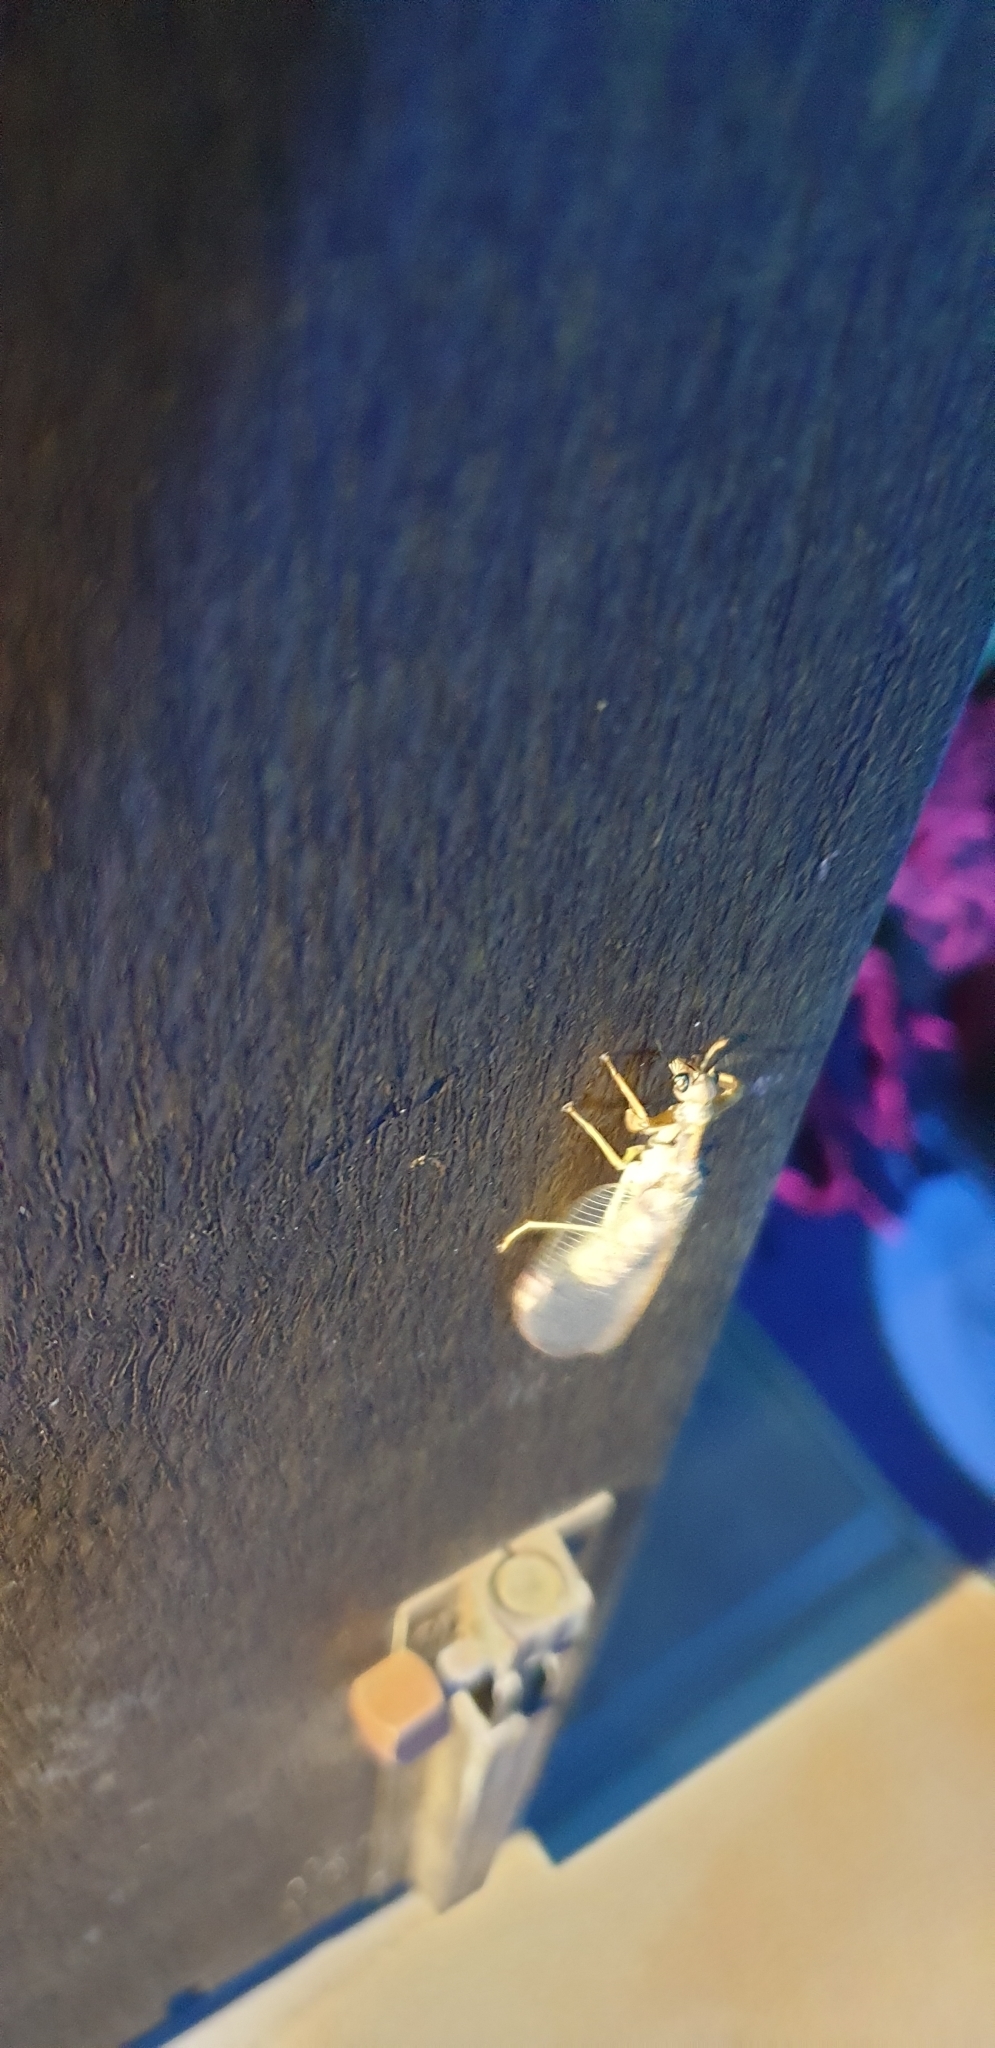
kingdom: Animalia
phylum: Arthropoda
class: Insecta
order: Neuroptera
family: Mantispidae
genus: Ditaxis
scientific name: Ditaxis biseriata
